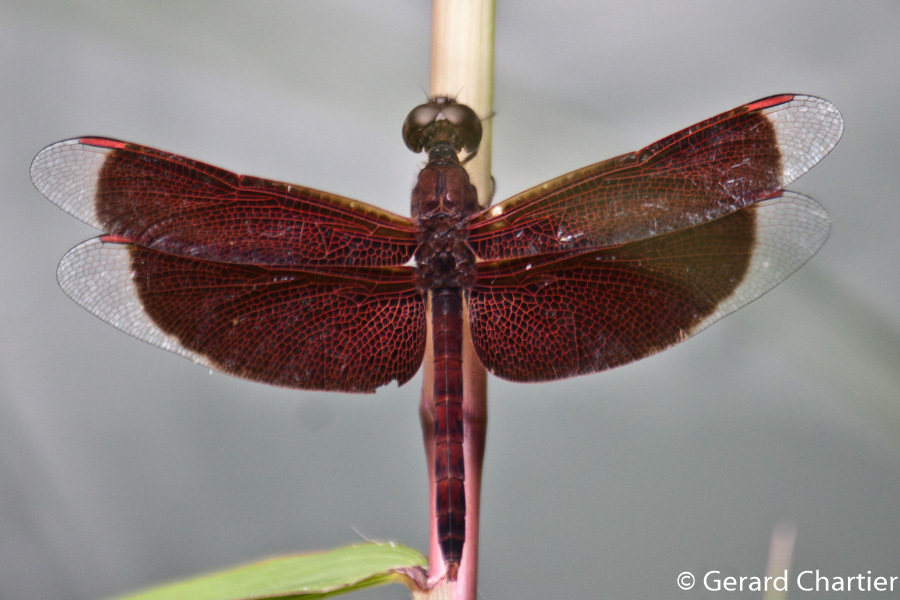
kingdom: Animalia
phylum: Arthropoda
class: Insecta
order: Odonata
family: Libellulidae
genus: Neurothemis
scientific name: Neurothemis fluctuans
